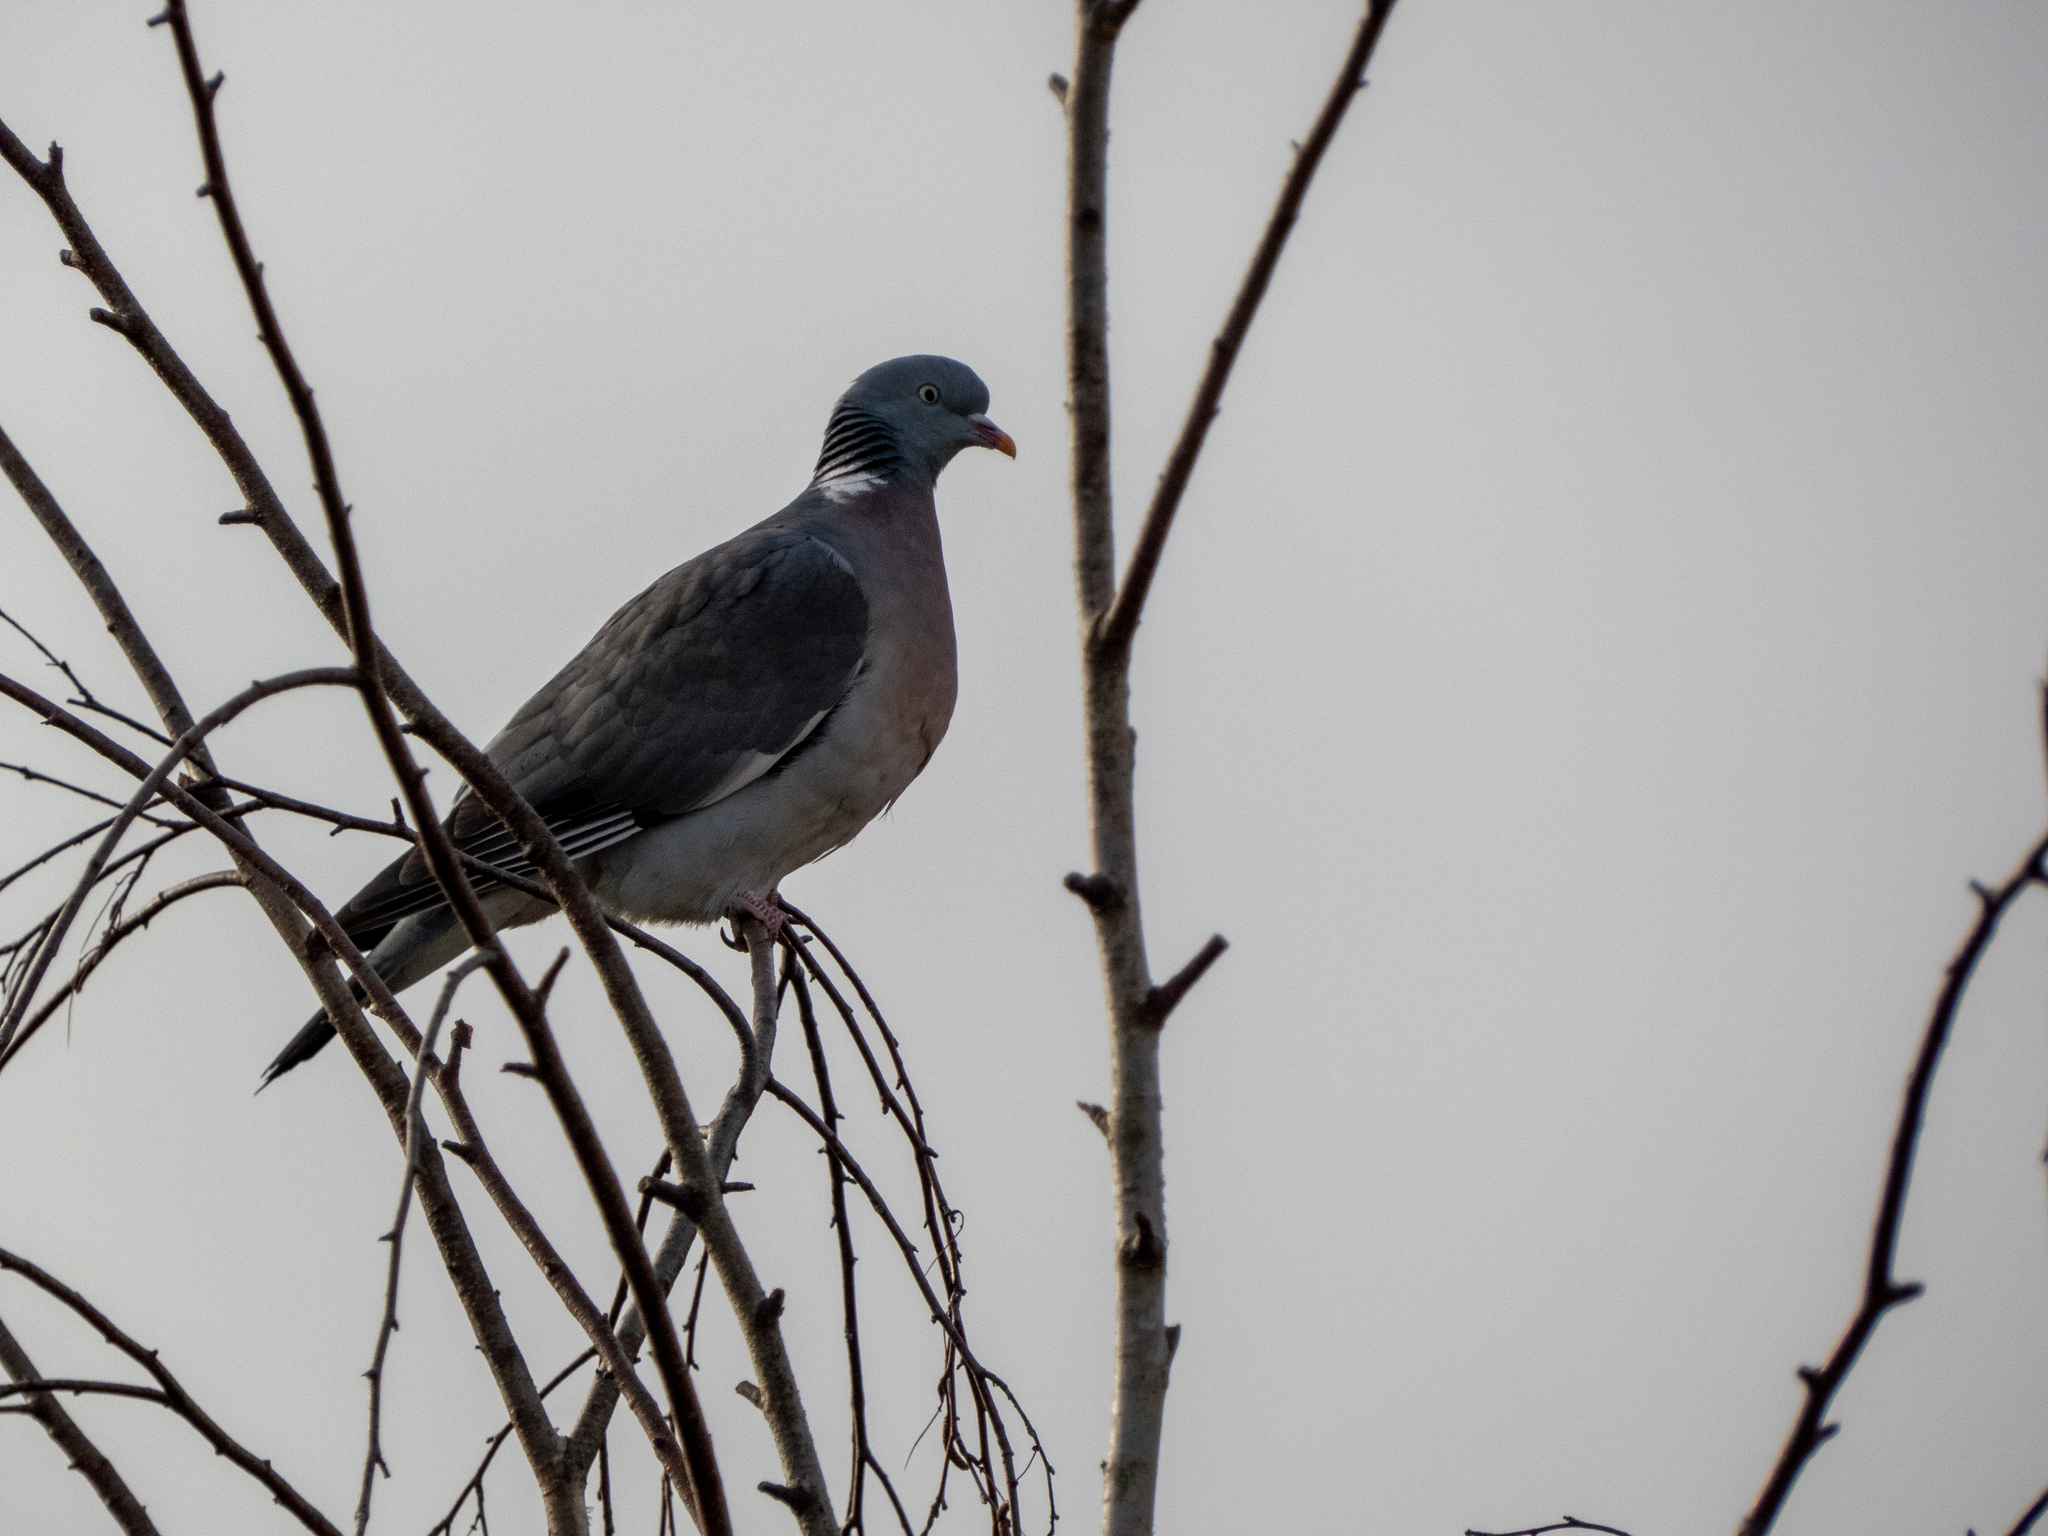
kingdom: Animalia
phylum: Chordata
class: Aves
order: Columbiformes
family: Columbidae
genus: Columba
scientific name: Columba palumbus
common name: Common wood pigeon
